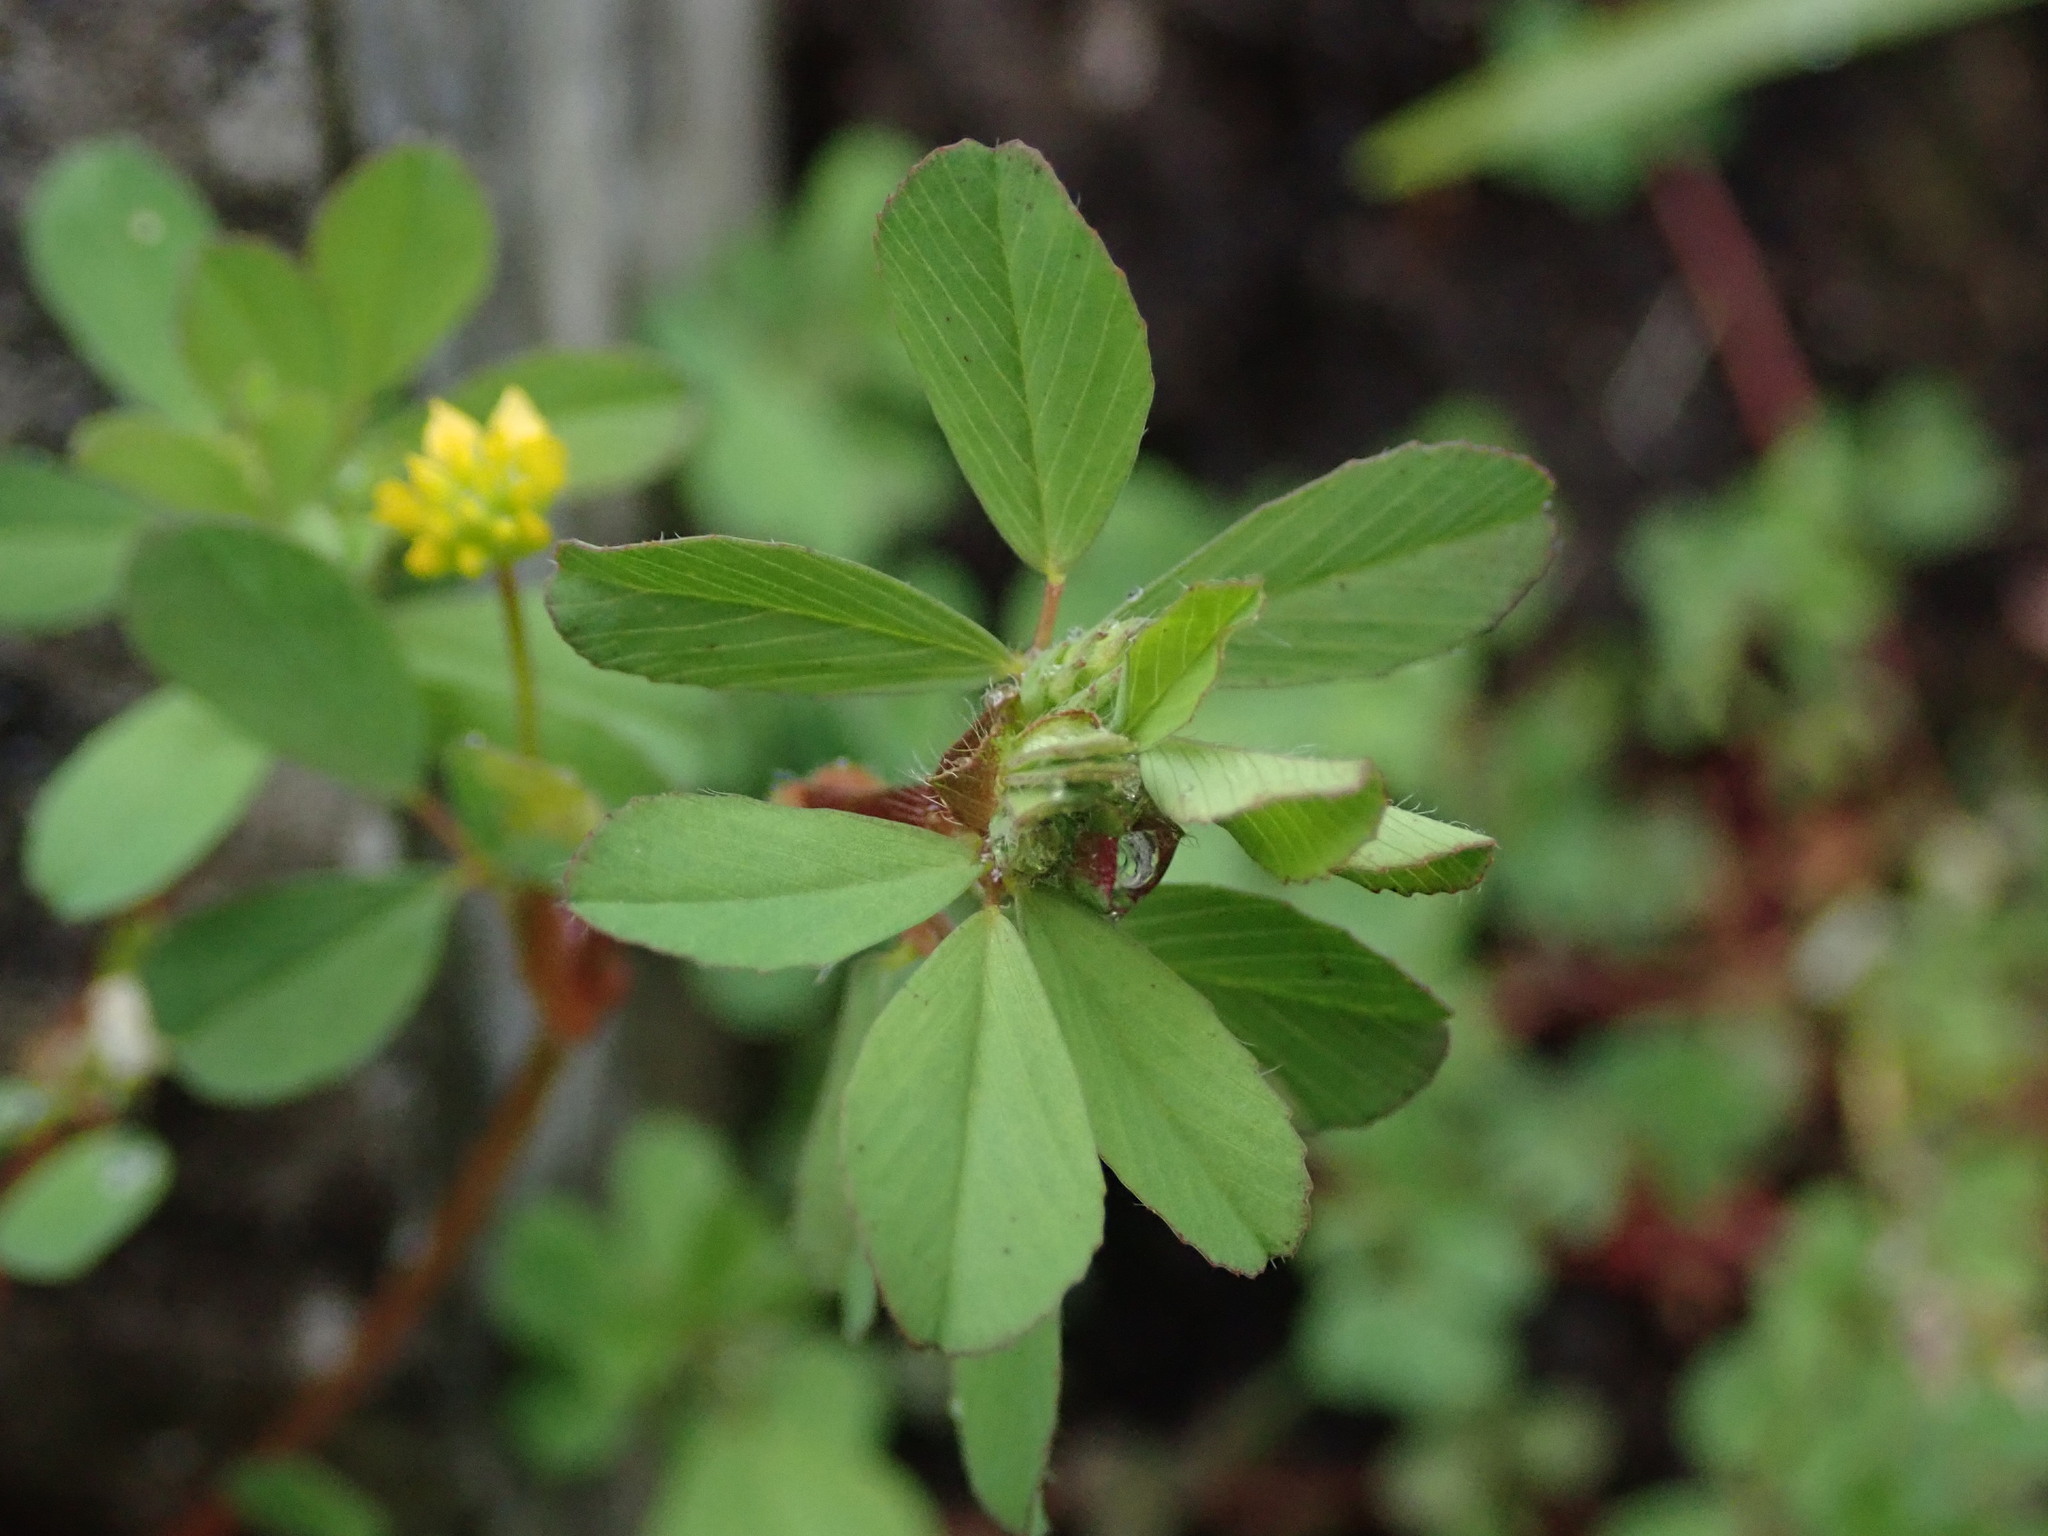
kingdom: Plantae
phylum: Tracheophyta
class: Magnoliopsida
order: Fabales
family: Fabaceae
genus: Trifolium
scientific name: Trifolium dubium
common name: Suckling clover
